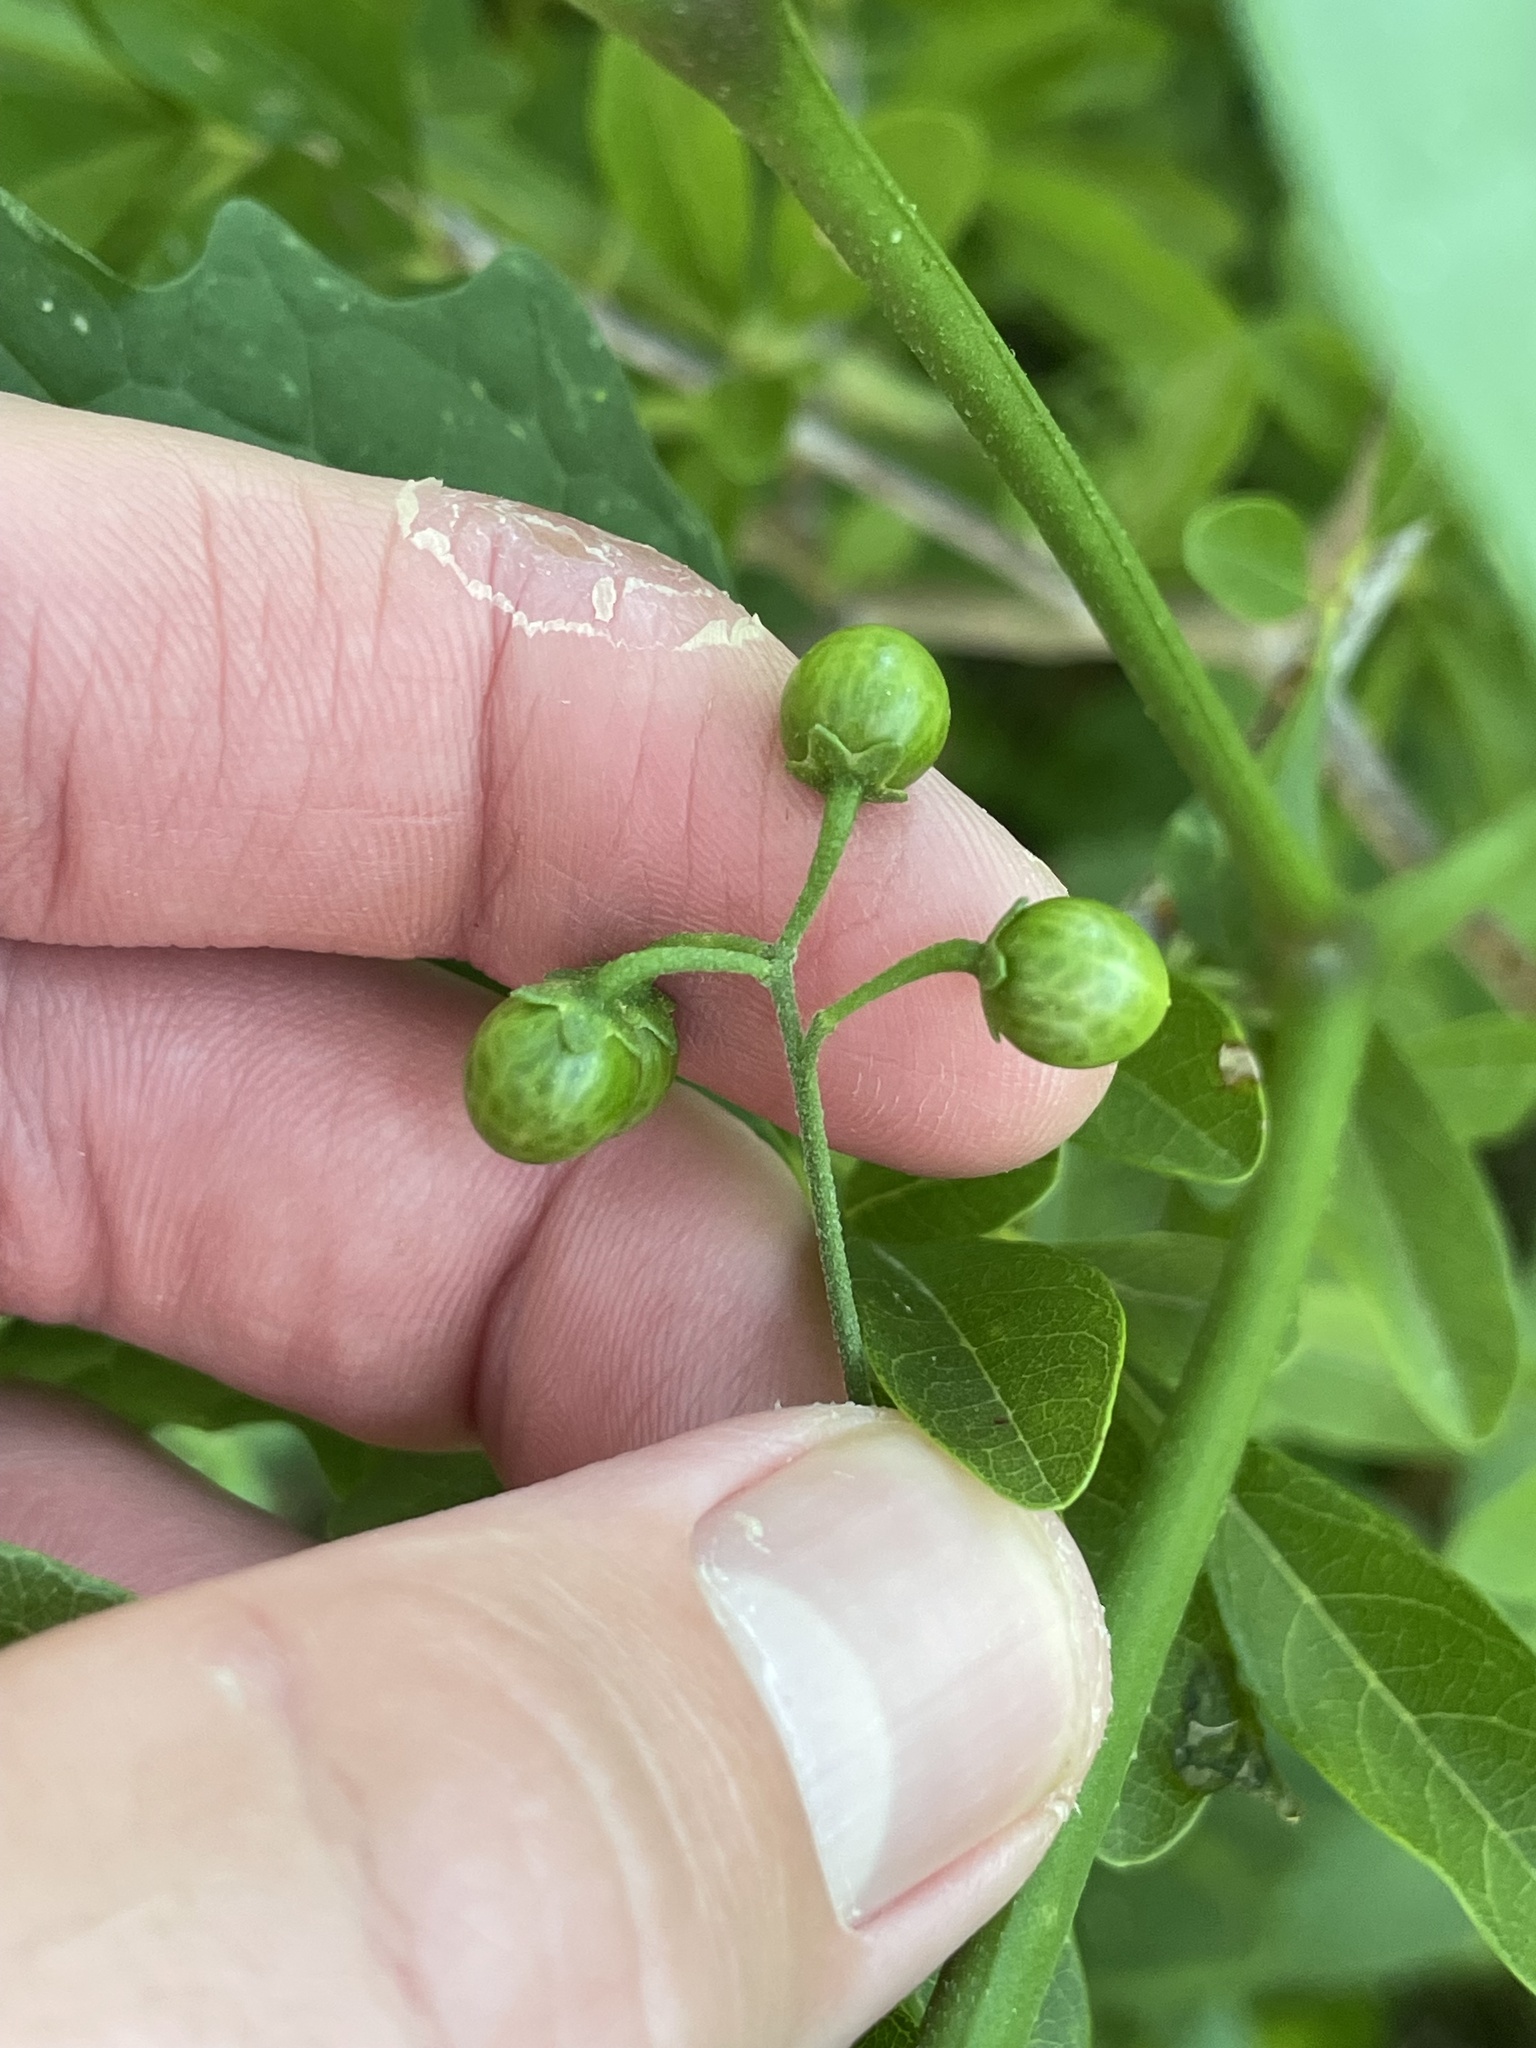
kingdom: Plantae
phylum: Tracheophyta
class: Magnoliopsida
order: Solanales
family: Solanaceae
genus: Solanum
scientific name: Solanum emulans
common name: Eastern black nightshade
